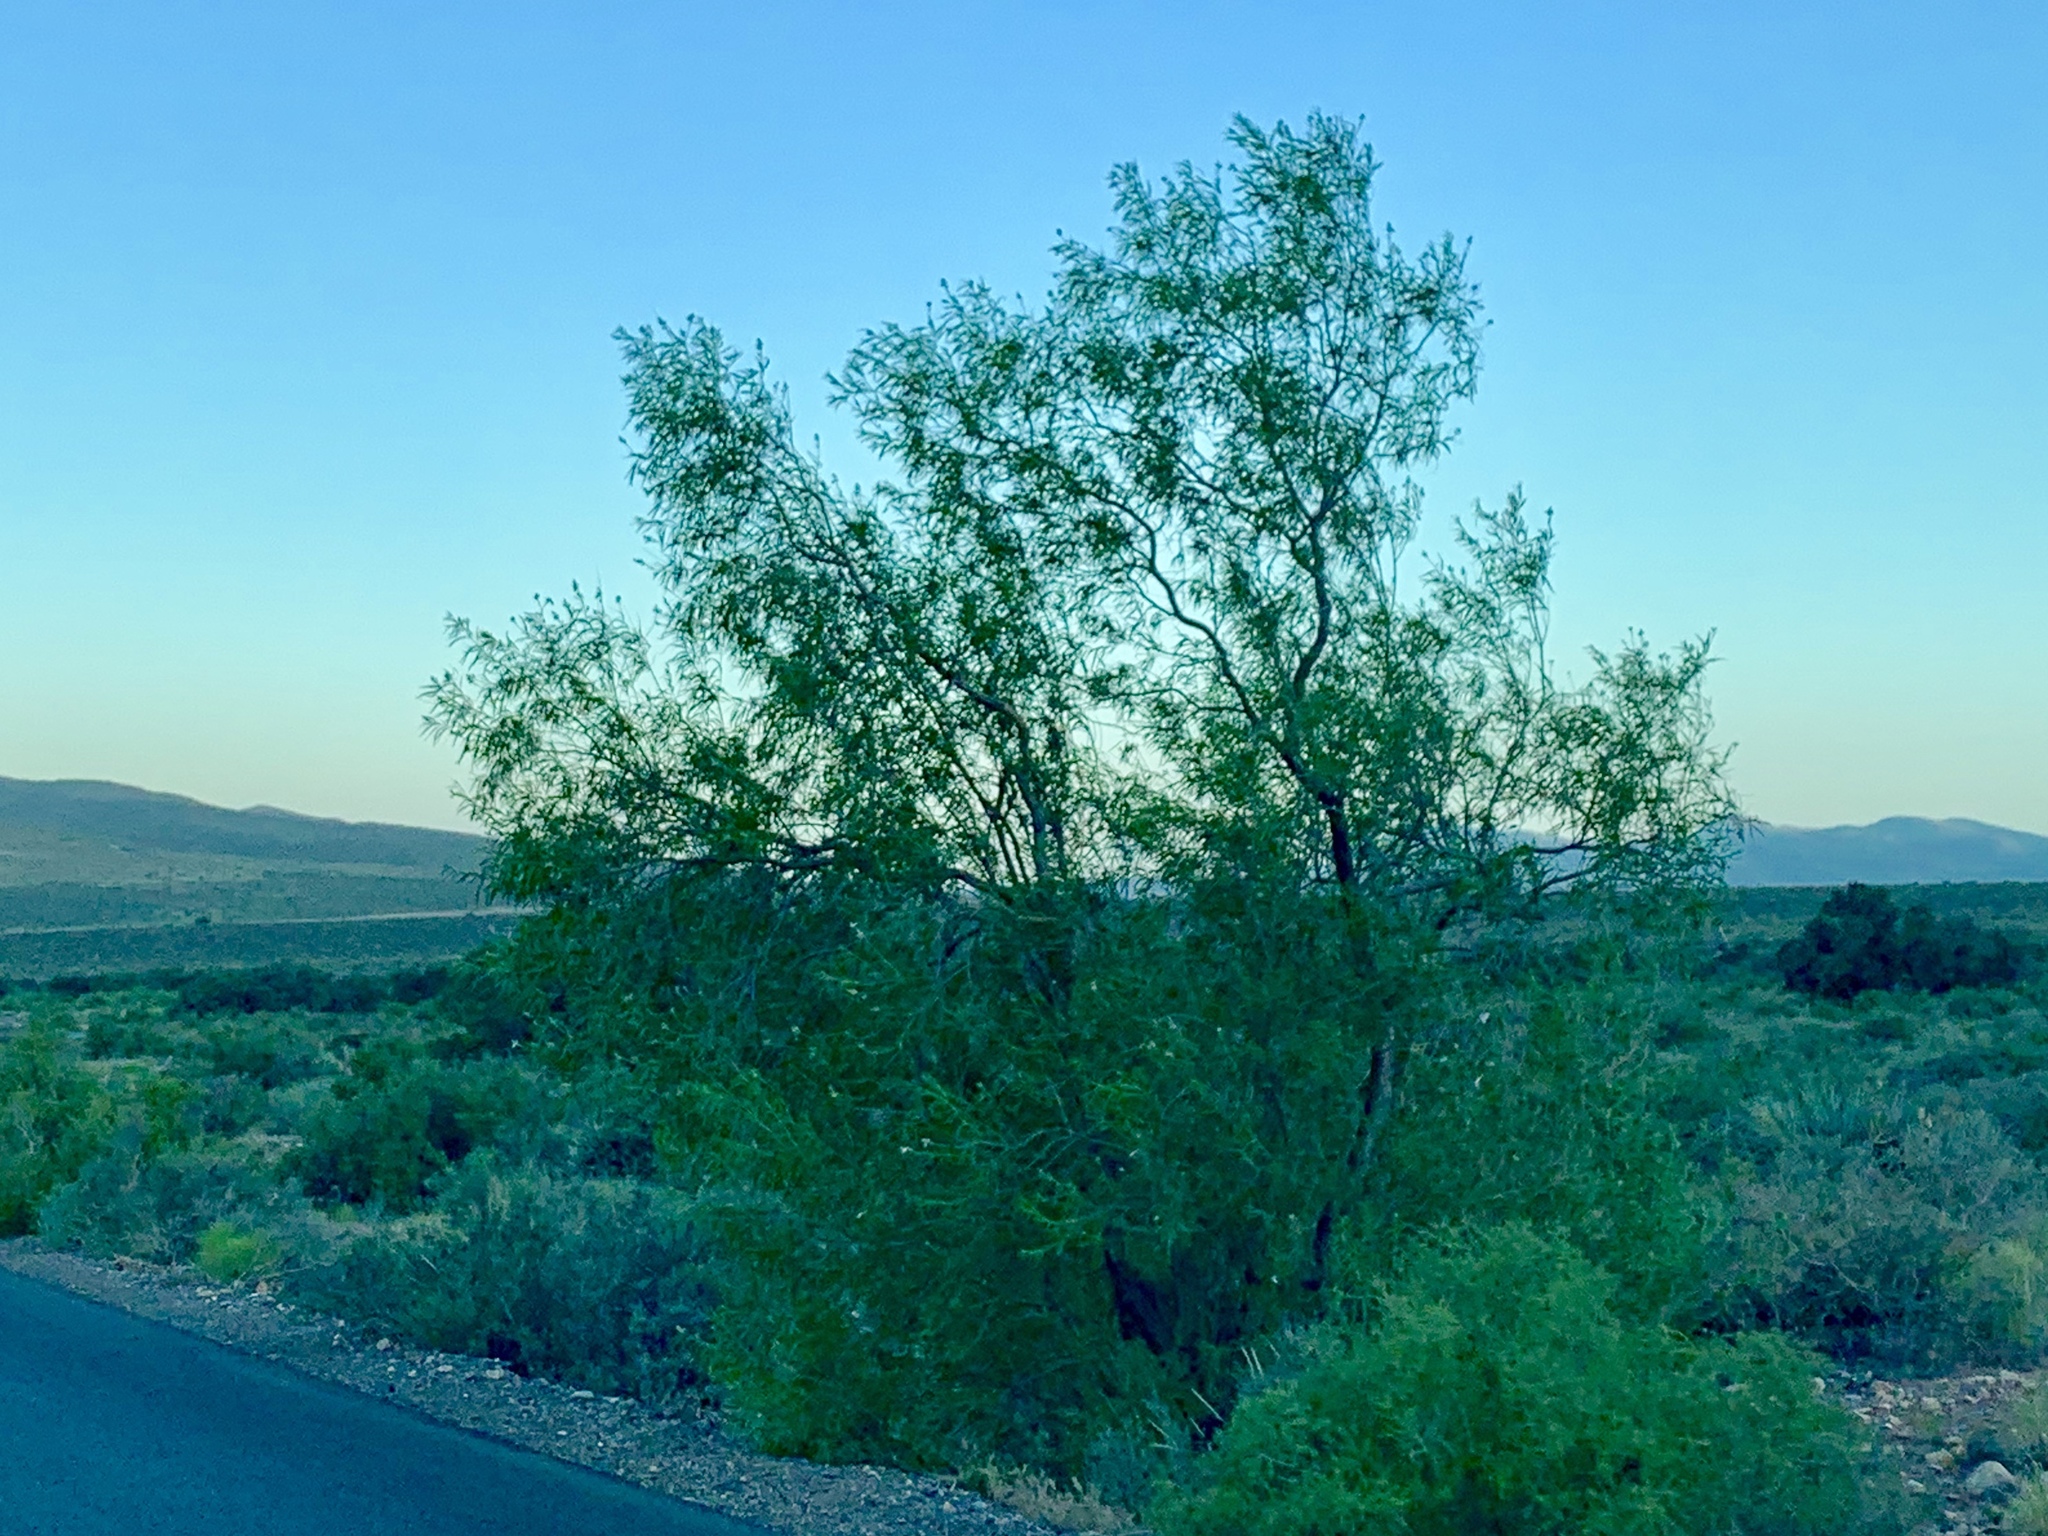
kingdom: Plantae
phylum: Tracheophyta
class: Magnoliopsida
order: Lamiales
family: Bignoniaceae
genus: Chilopsis
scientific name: Chilopsis linearis
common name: Desert-willow
